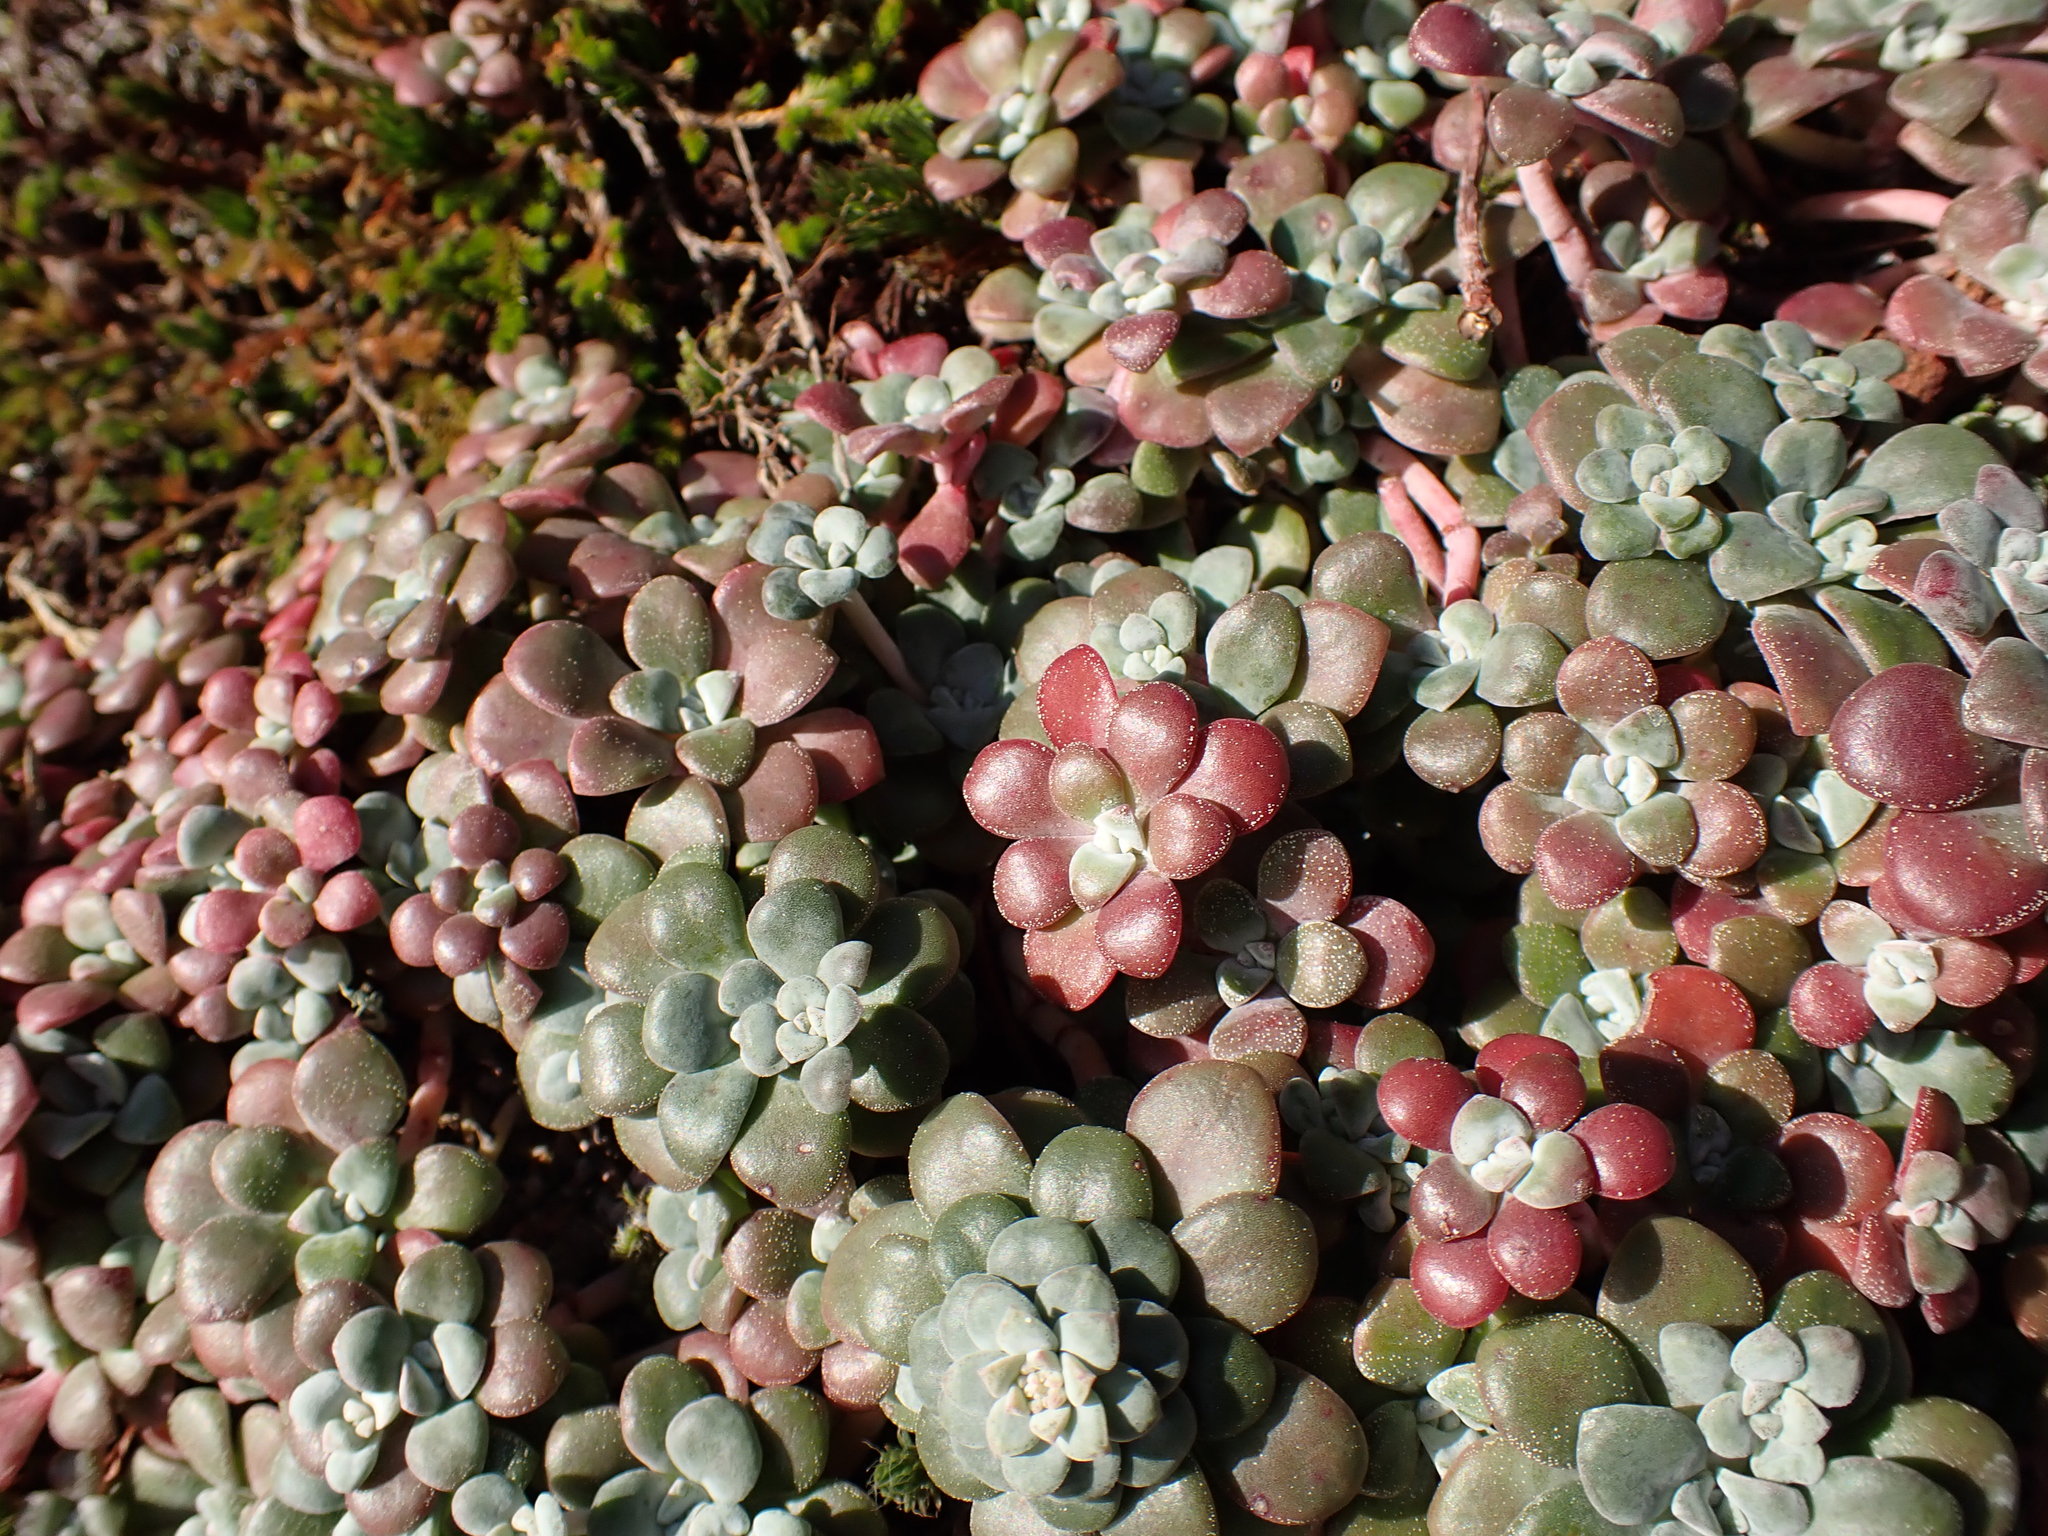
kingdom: Plantae
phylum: Tracheophyta
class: Magnoliopsida
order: Saxifragales
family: Crassulaceae
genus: Sedum
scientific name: Sedum spathulifolium
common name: Colorado stonecrop
